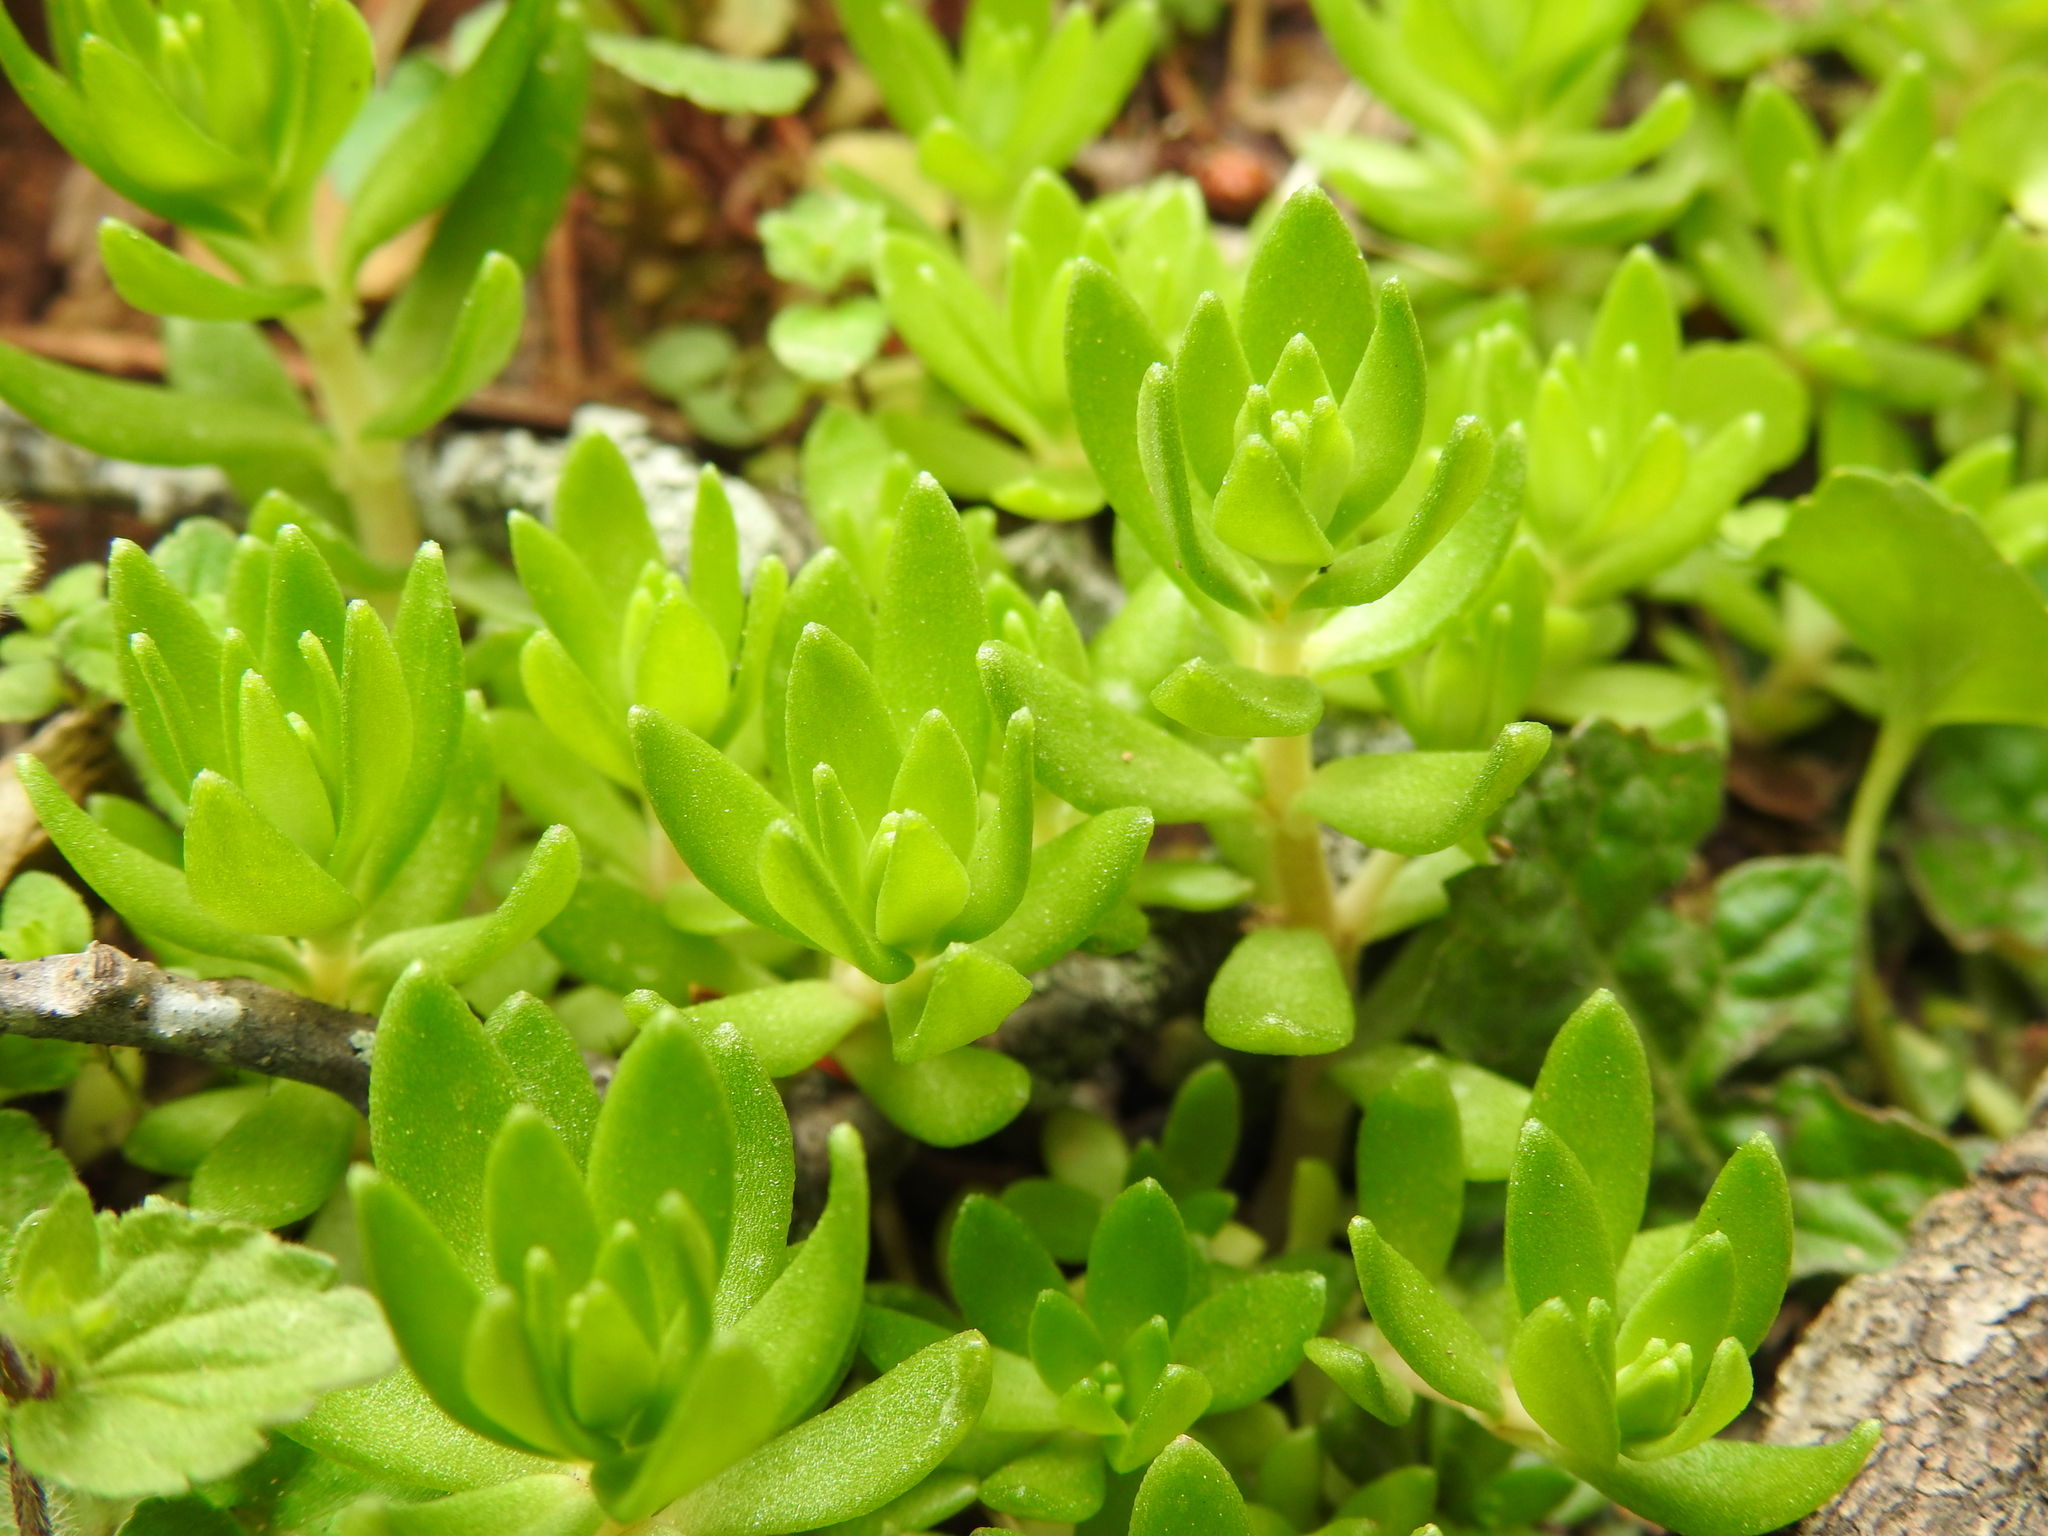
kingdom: Plantae
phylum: Tracheophyta
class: Magnoliopsida
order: Saxifragales
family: Crassulaceae
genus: Sedum
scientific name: Sedum sarmentosum
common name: Stringy stonecrop
